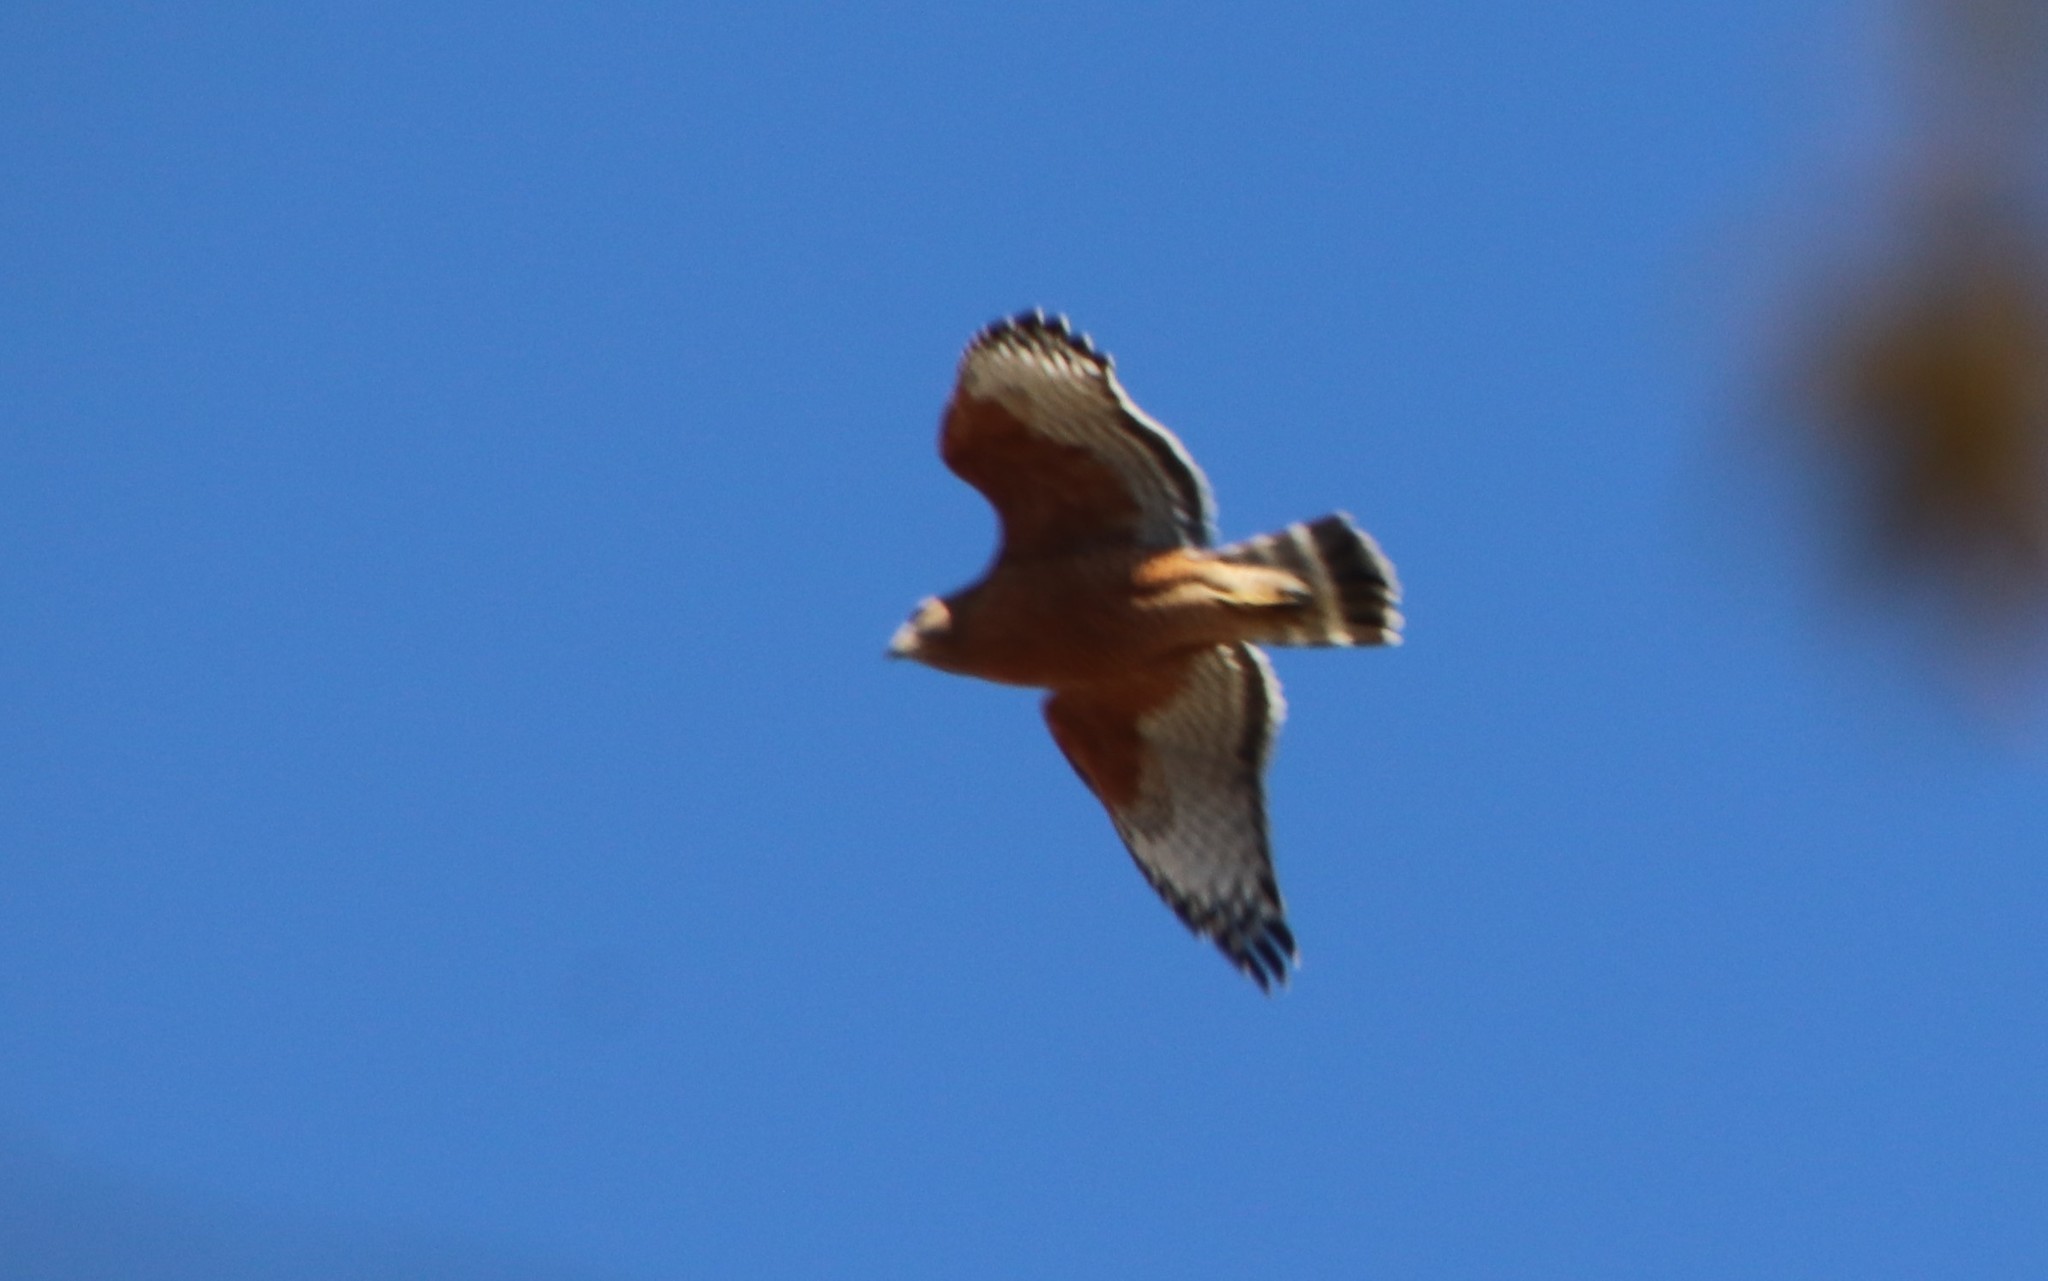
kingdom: Animalia
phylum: Chordata
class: Aves
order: Accipitriformes
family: Accipitridae
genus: Buteo
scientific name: Buteo lineatus
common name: Red-shouldered hawk
